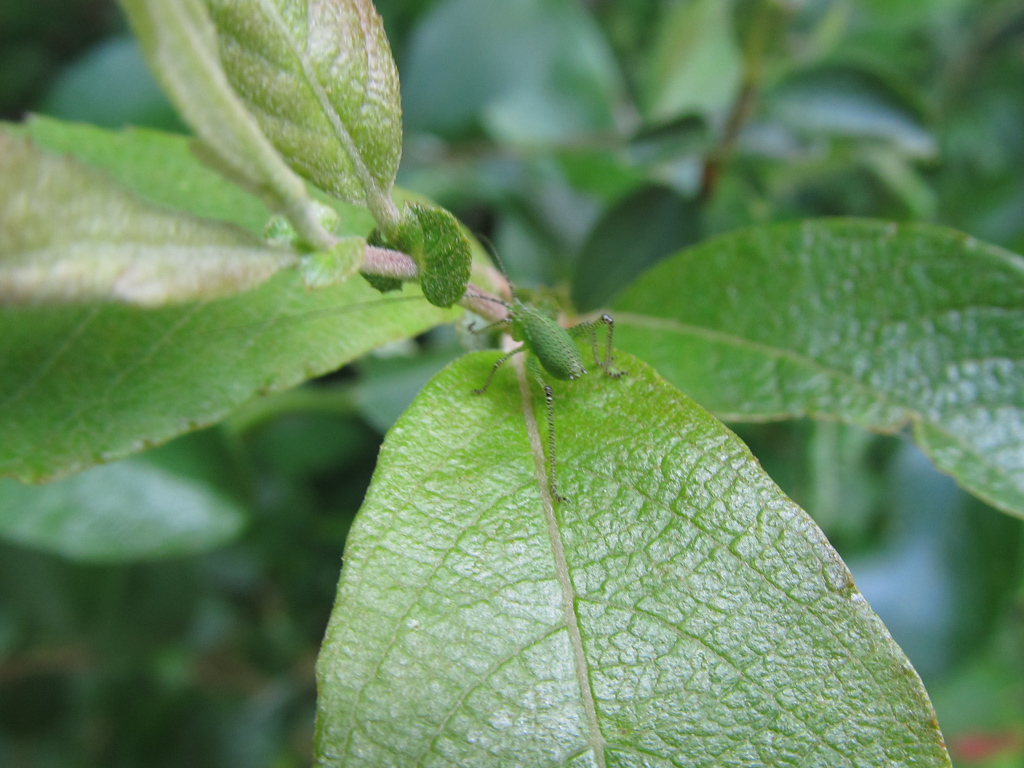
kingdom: Animalia
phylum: Arthropoda
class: Insecta
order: Orthoptera
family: Tettigoniidae
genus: Leptophyes
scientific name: Leptophyes punctatissima
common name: Speckled bush-cricket
